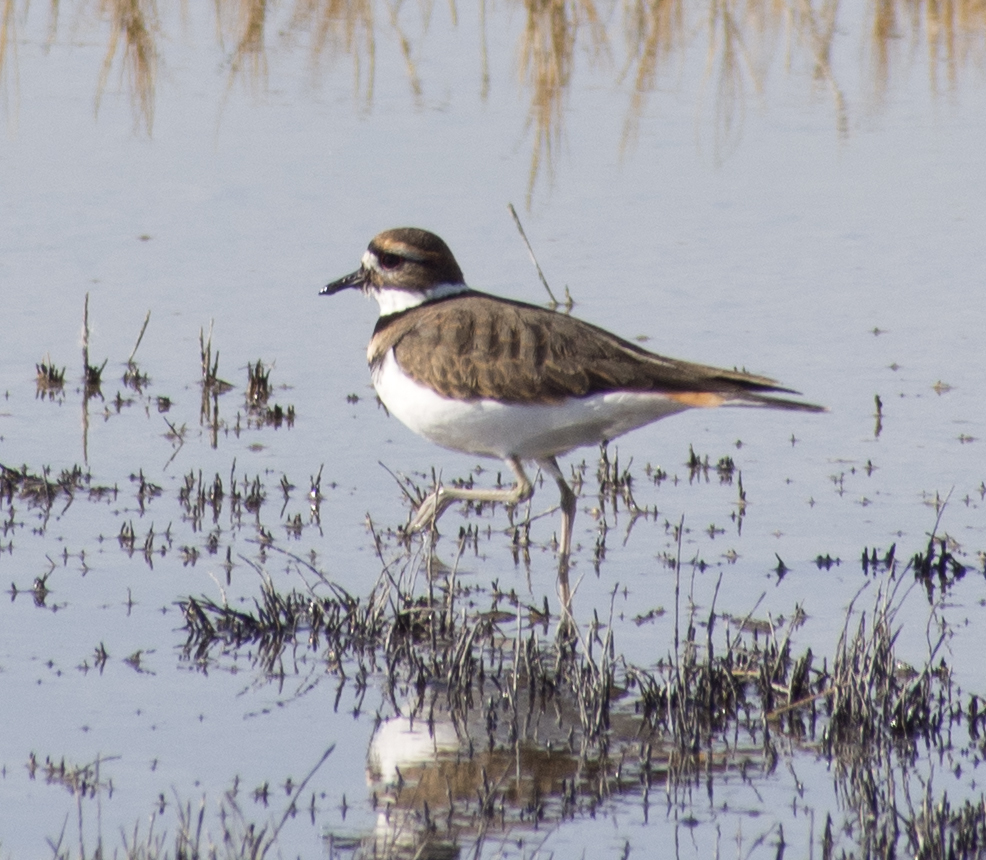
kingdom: Animalia
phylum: Chordata
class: Aves
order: Charadriiformes
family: Charadriidae
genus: Charadrius
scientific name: Charadrius vociferus
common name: Killdeer
